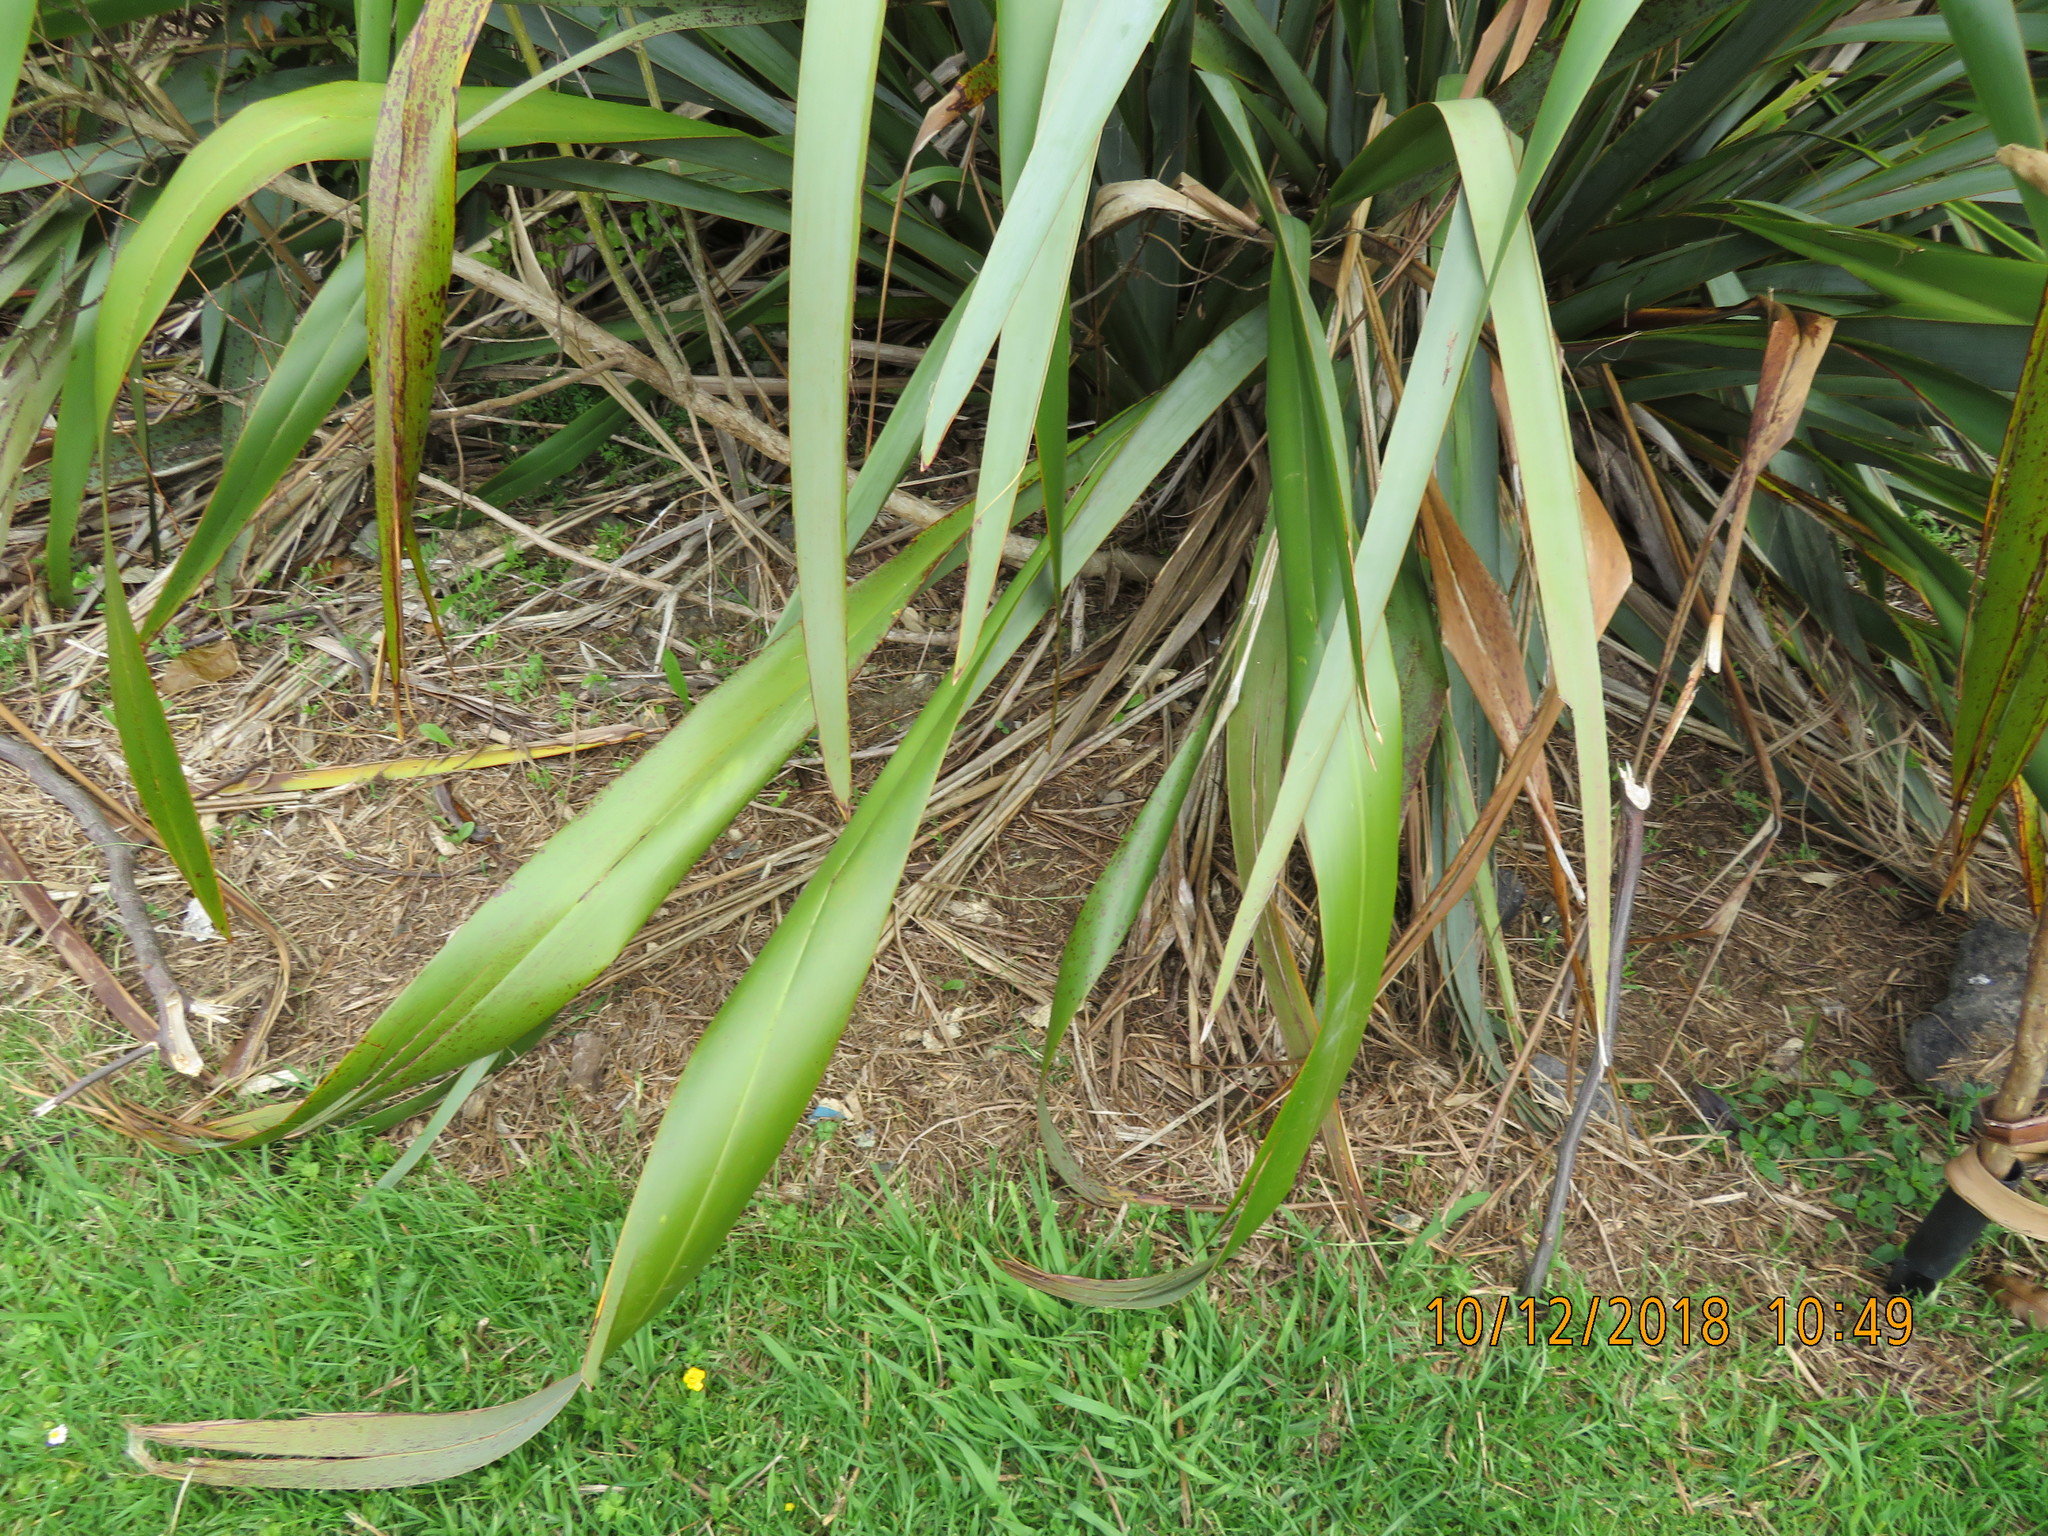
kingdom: Plantae
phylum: Tracheophyta
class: Magnoliopsida
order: Ericales
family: Primulaceae
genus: Myrsine
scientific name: Myrsine australis
